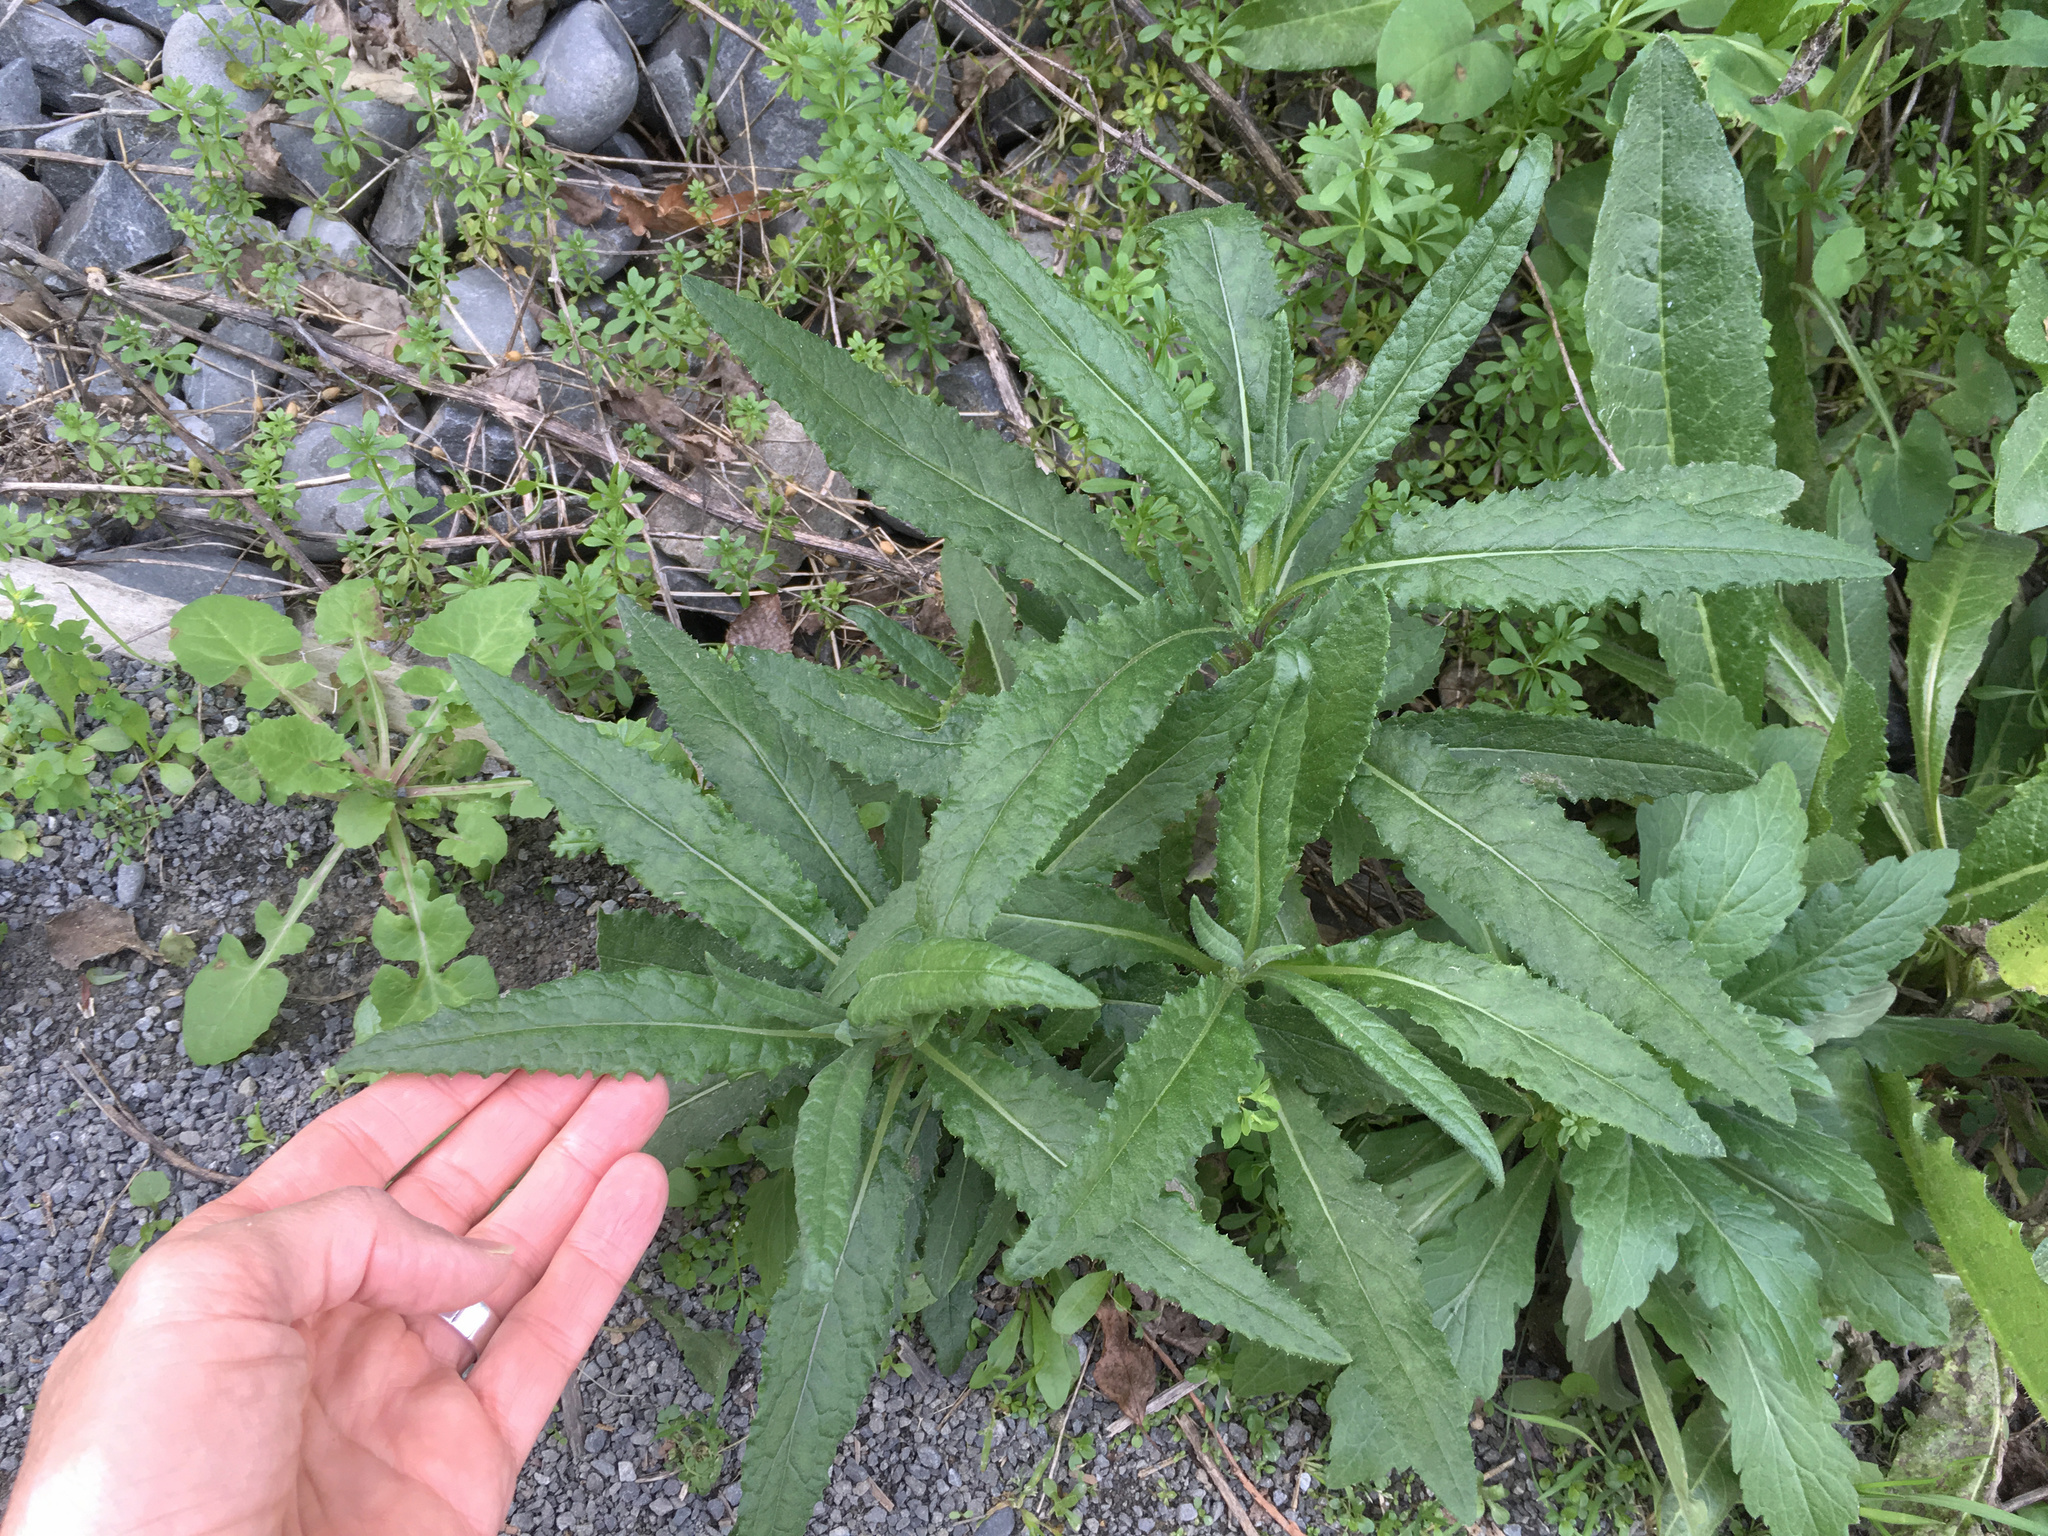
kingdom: Plantae
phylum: Tracheophyta
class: Magnoliopsida
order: Asterales
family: Asteraceae
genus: Senecio
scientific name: Senecio minimus
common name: Toothed fireweed
